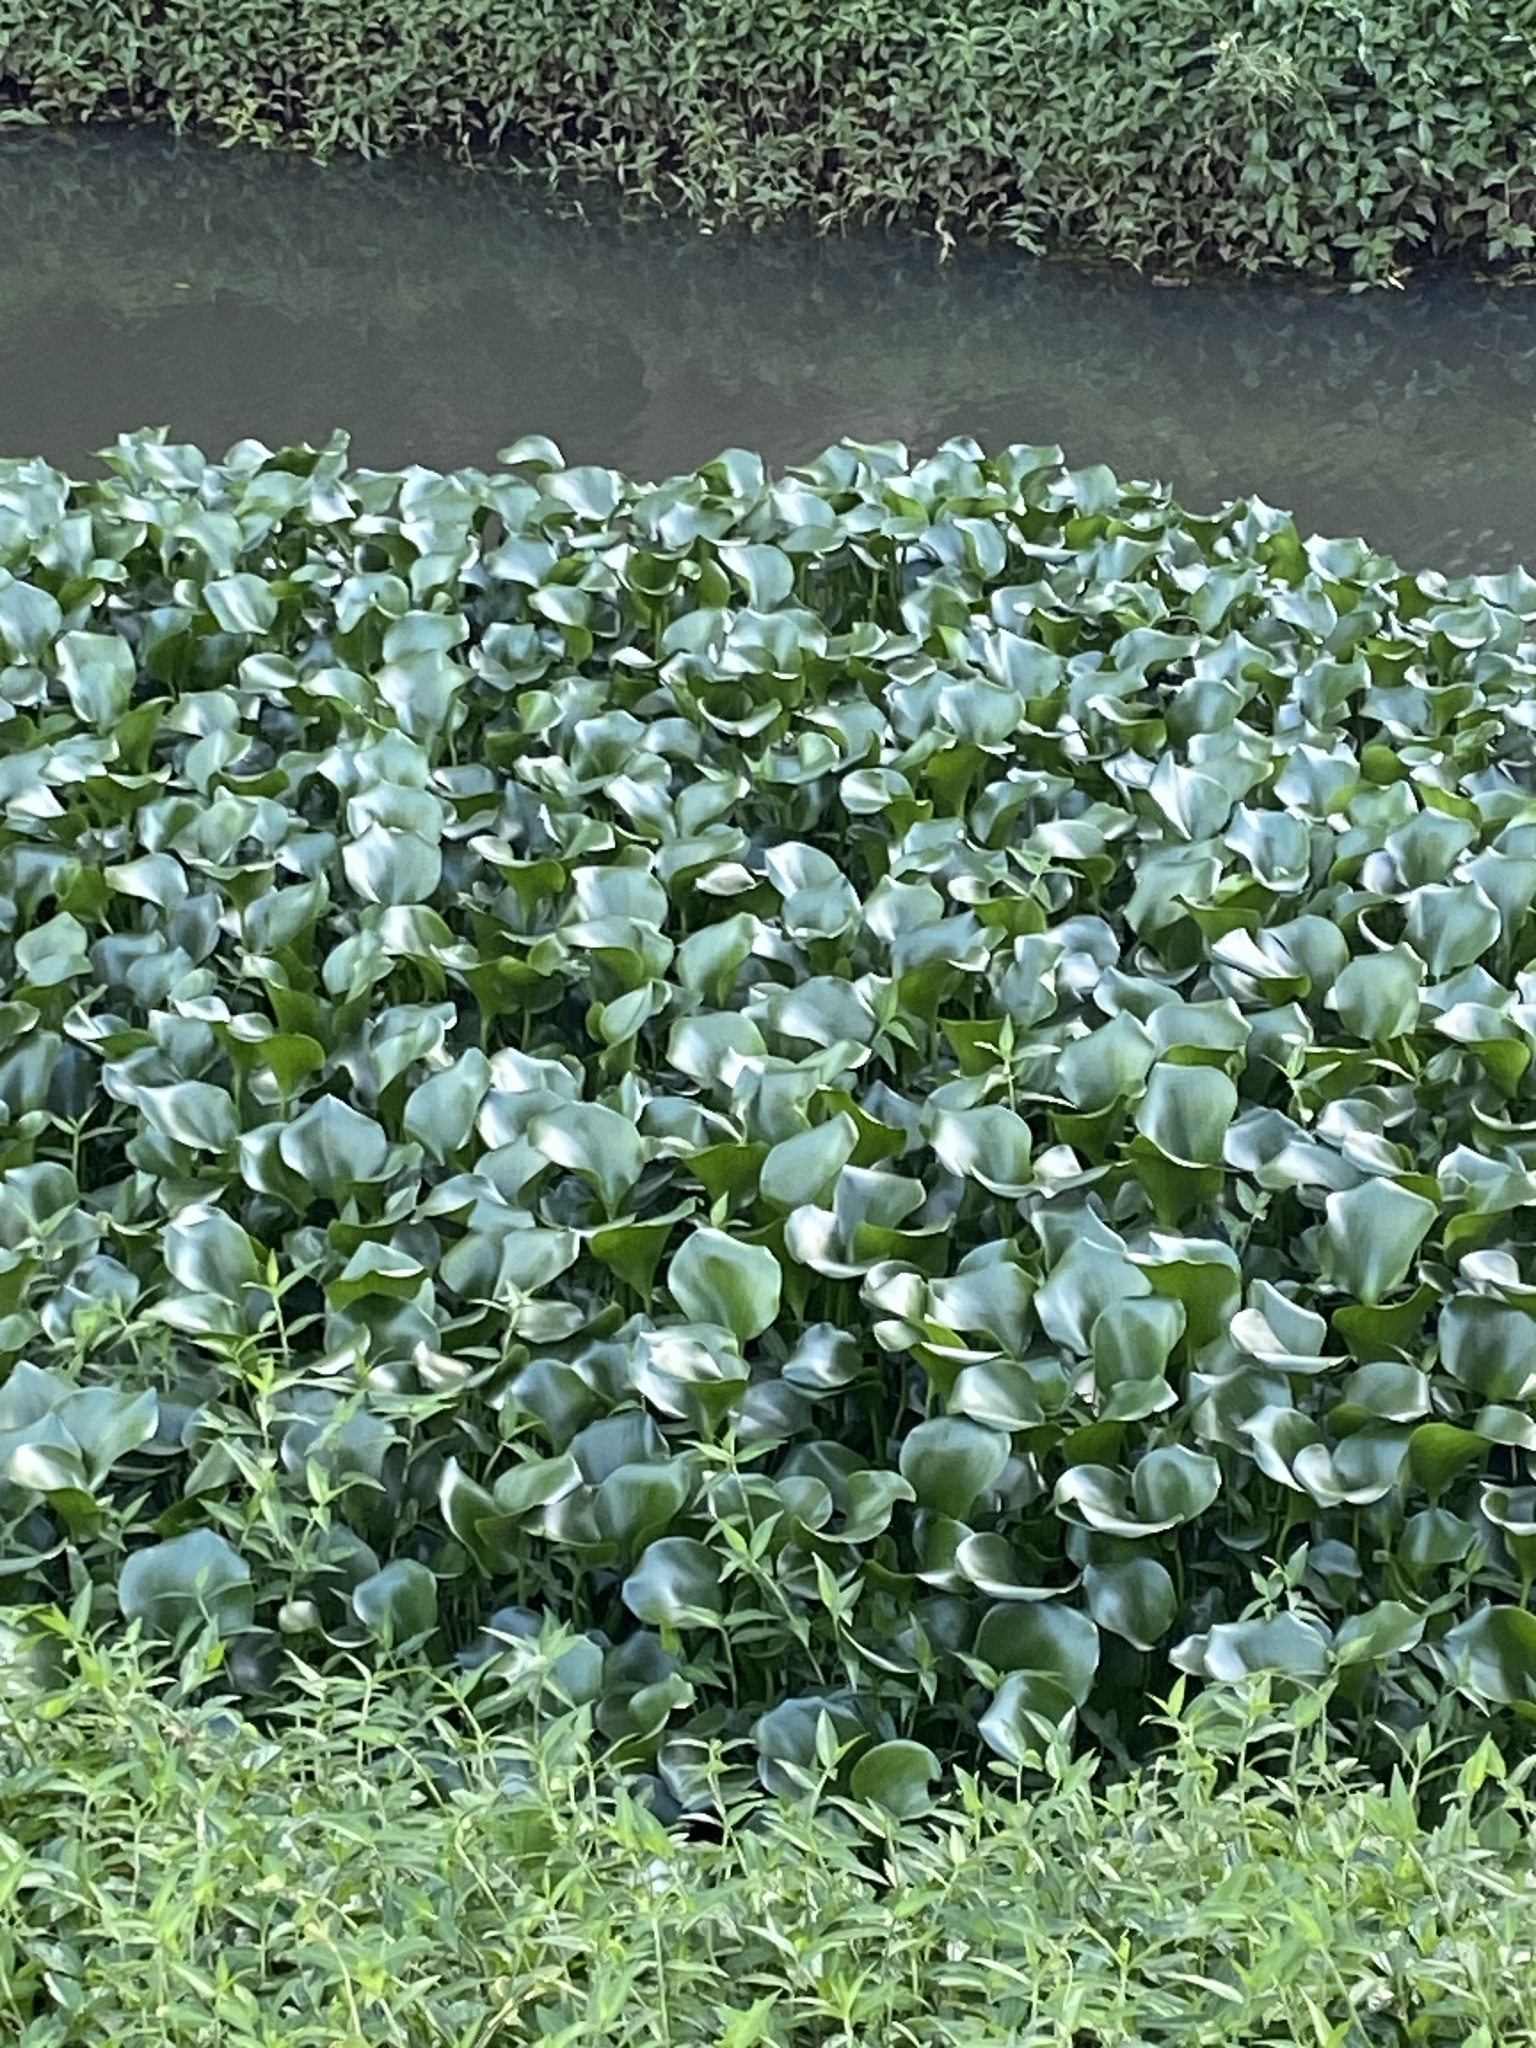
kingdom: Plantae
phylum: Tracheophyta
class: Liliopsida
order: Commelinales
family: Pontederiaceae
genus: Pontederia
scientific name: Pontederia crassipes
